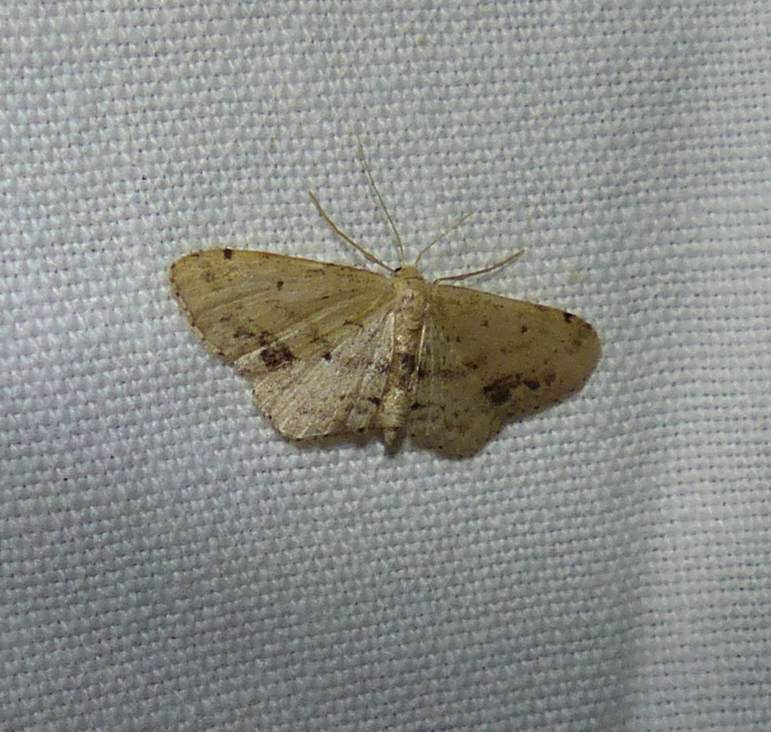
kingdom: Animalia
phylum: Arthropoda
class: Insecta
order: Lepidoptera
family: Geometridae
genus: Idaea
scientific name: Idaea dimidiata
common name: Single-dotted wave
